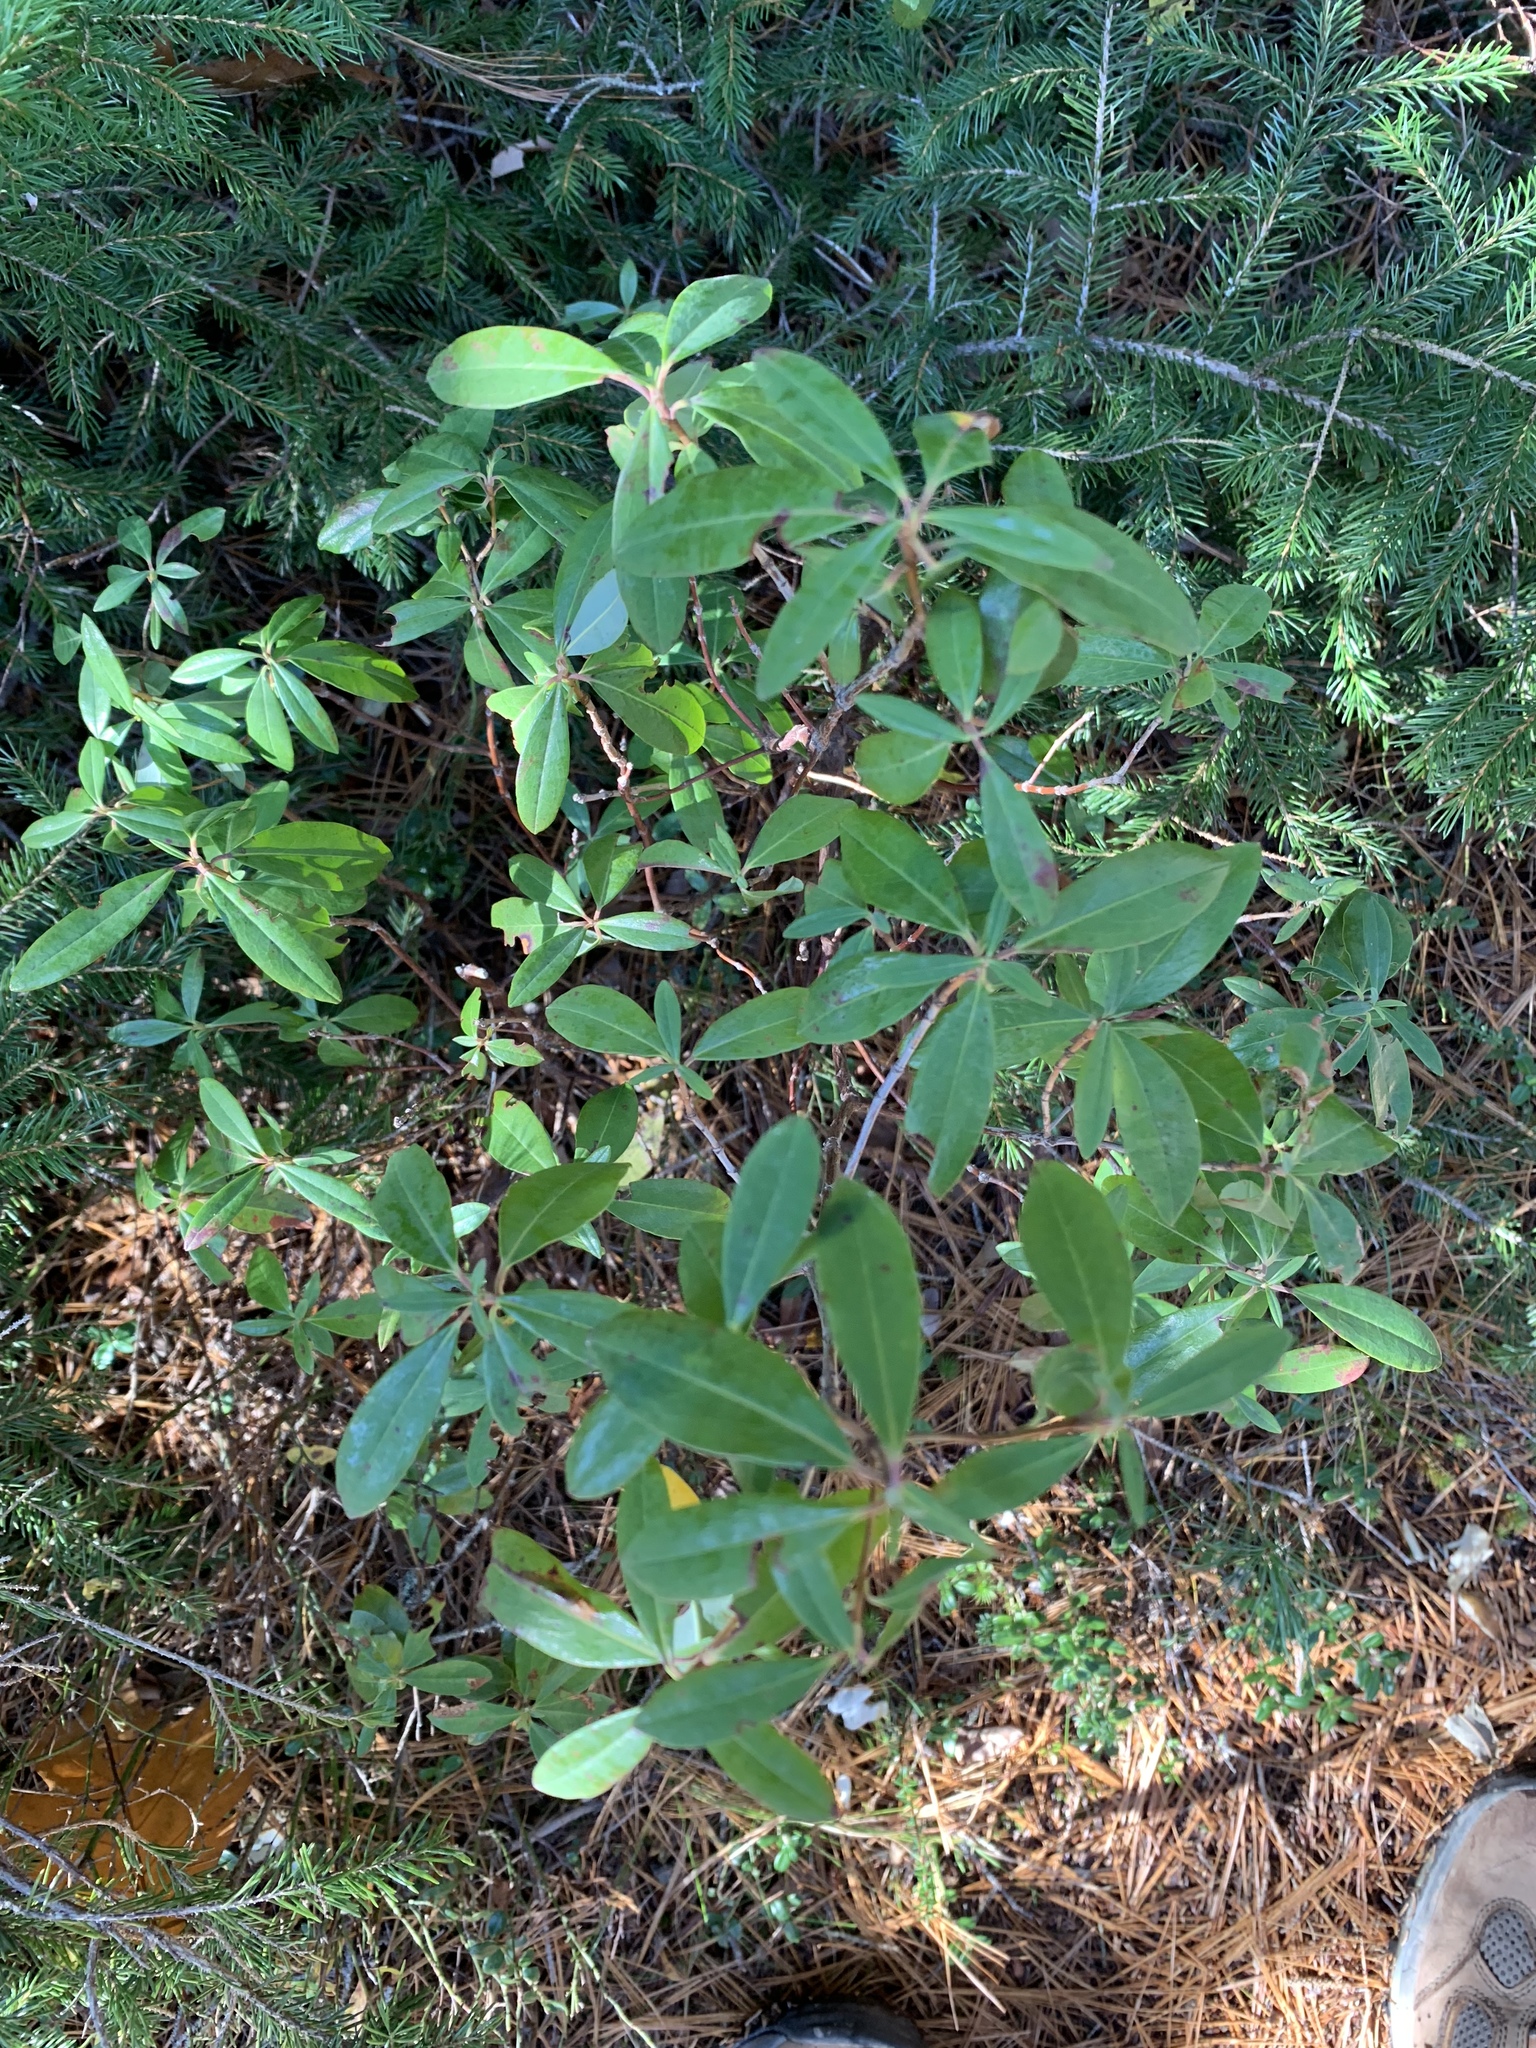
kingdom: Plantae
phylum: Tracheophyta
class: Magnoliopsida
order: Ericales
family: Ericaceae
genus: Kalmia
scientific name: Kalmia angustifolia
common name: Sheep-laurel
